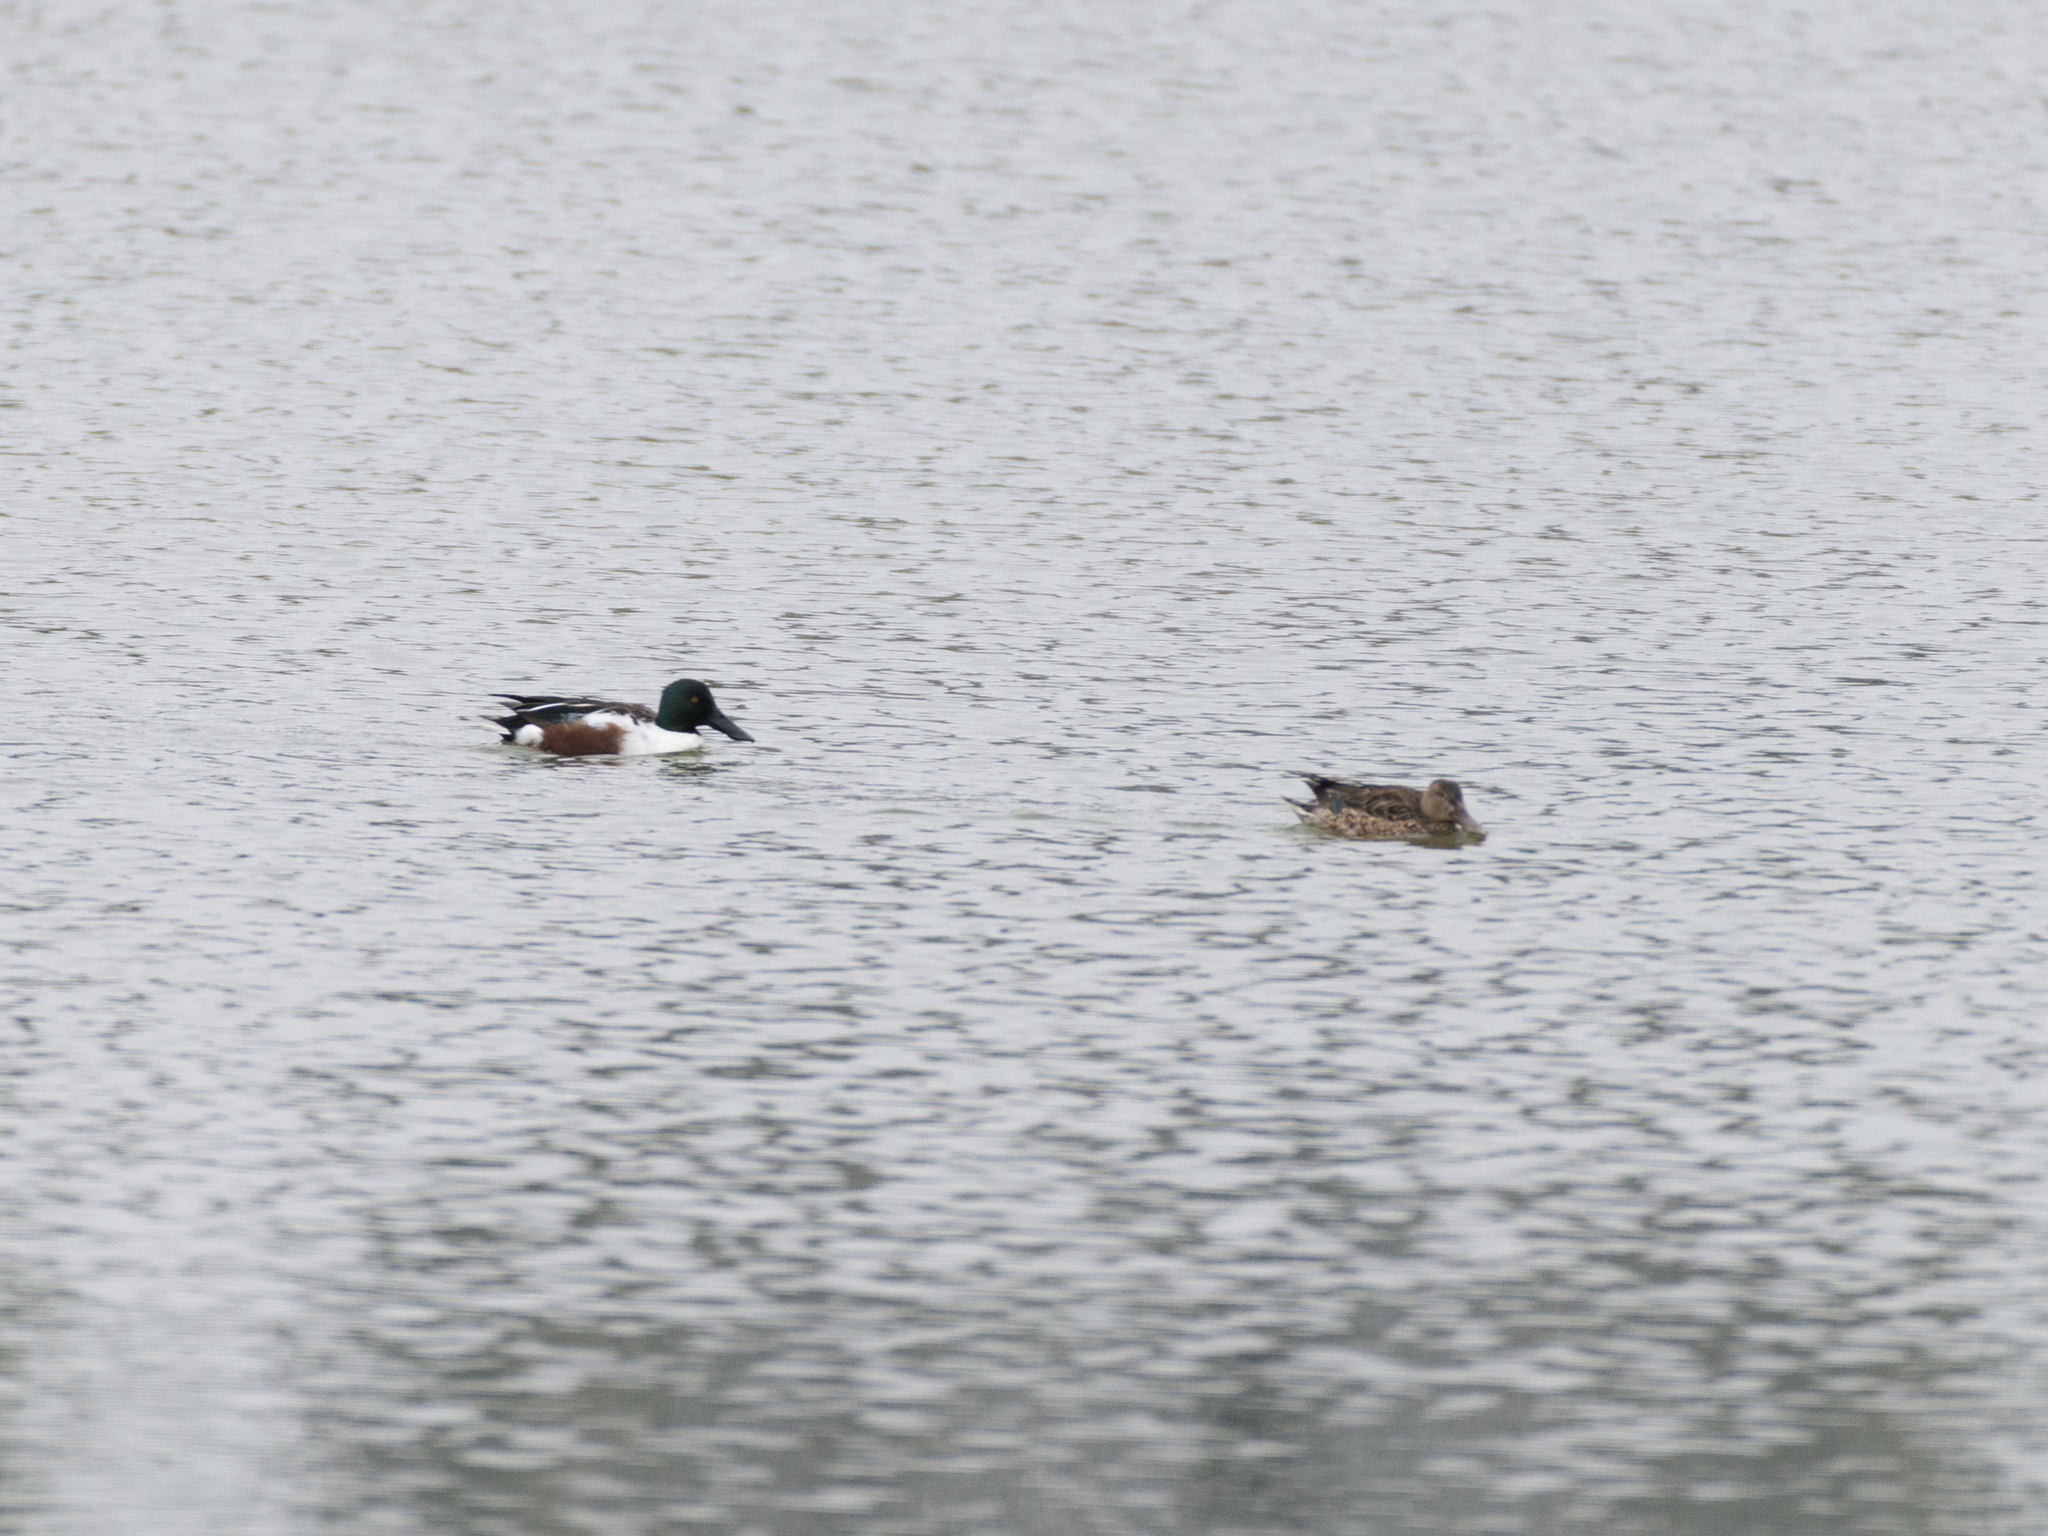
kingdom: Animalia
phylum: Chordata
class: Aves
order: Anseriformes
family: Anatidae
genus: Spatula
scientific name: Spatula clypeata
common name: Northern shoveler
